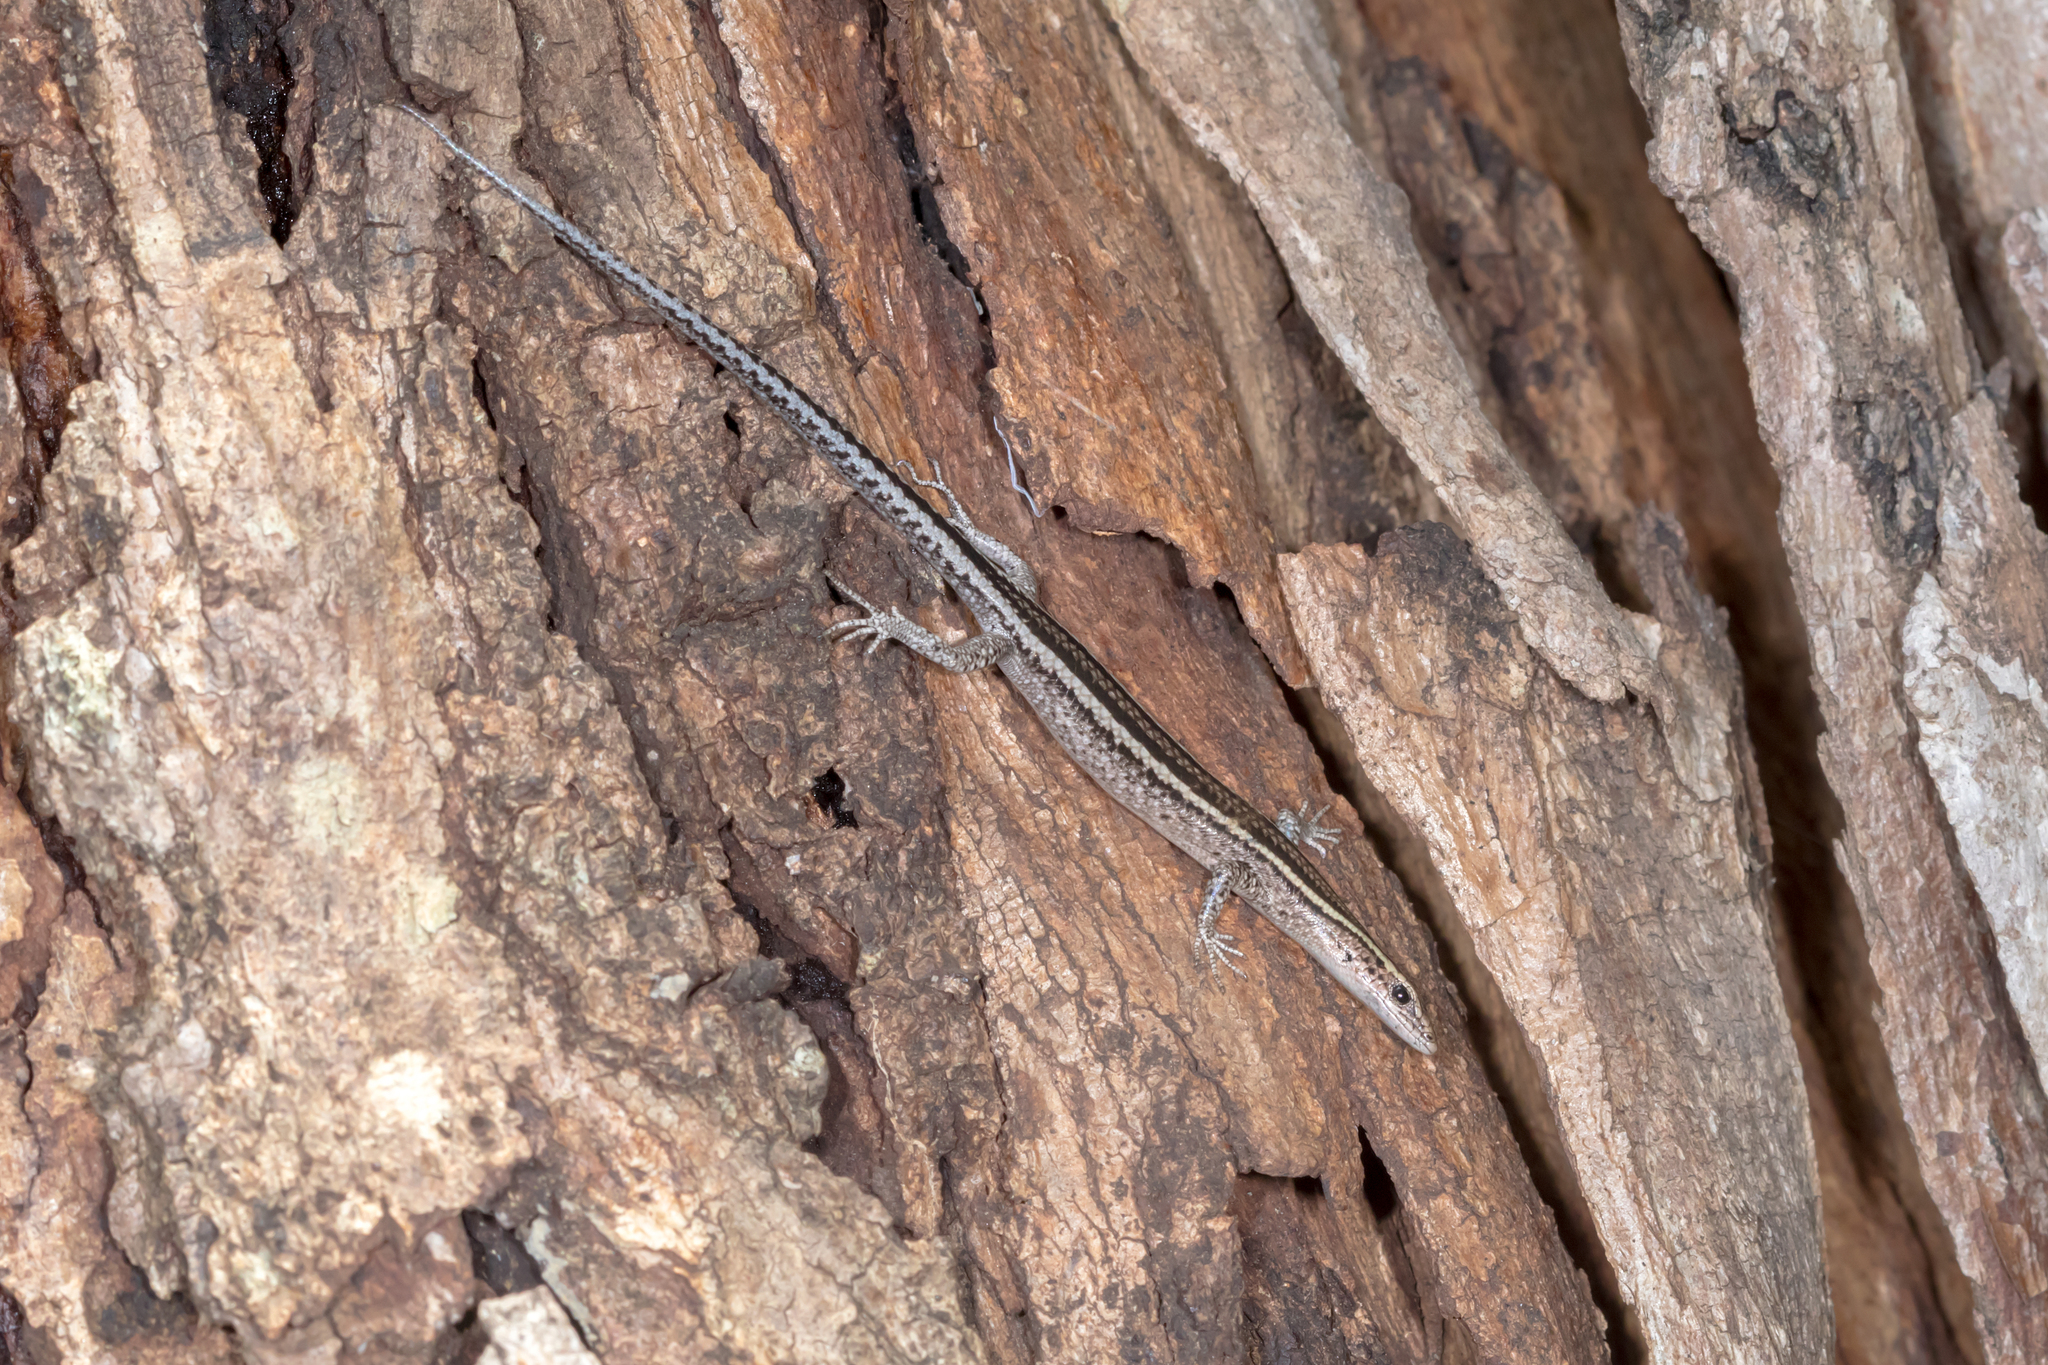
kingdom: Animalia
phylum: Chordata
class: Squamata
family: Scincidae
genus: Cryptoblepharus
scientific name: Cryptoblepharus pulcher
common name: Elegant snake-eyed skink
